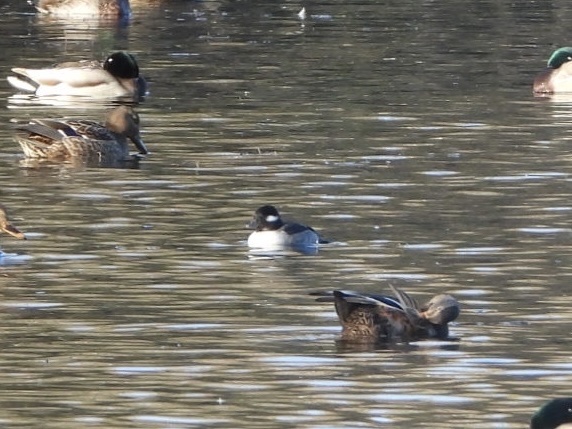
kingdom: Animalia
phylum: Chordata
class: Aves
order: Anseriformes
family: Anatidae
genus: Bucephala
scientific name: Bucephala albeola
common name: Bufflehead
